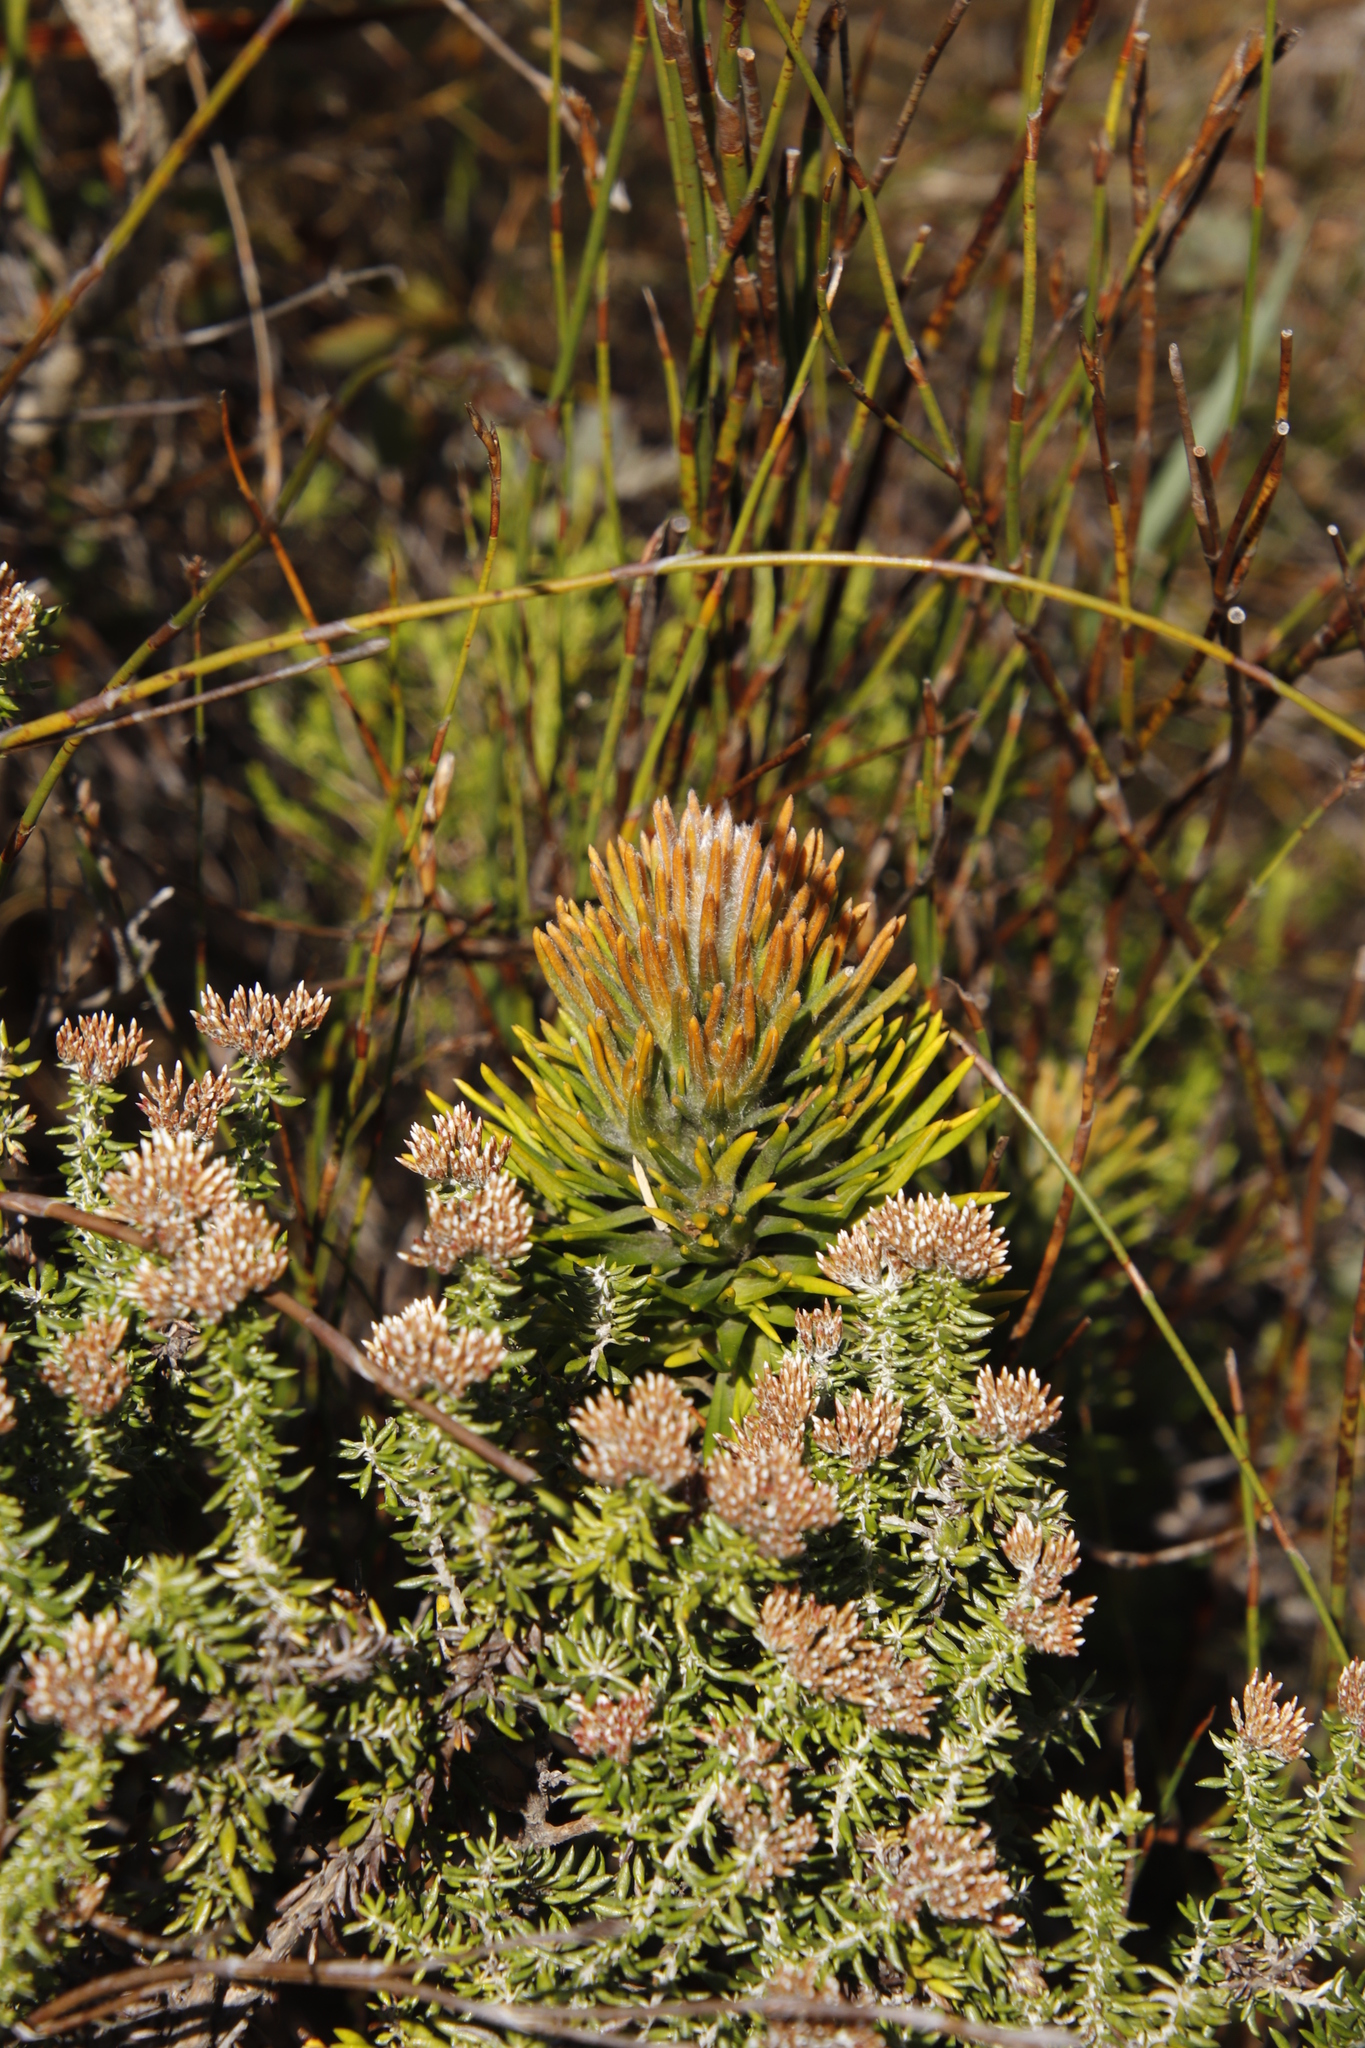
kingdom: Plantae
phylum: Tracheophyta
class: Magnoliopsida
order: Lamiales
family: Stilbaceae
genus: Retzia
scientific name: Retzia capensis
